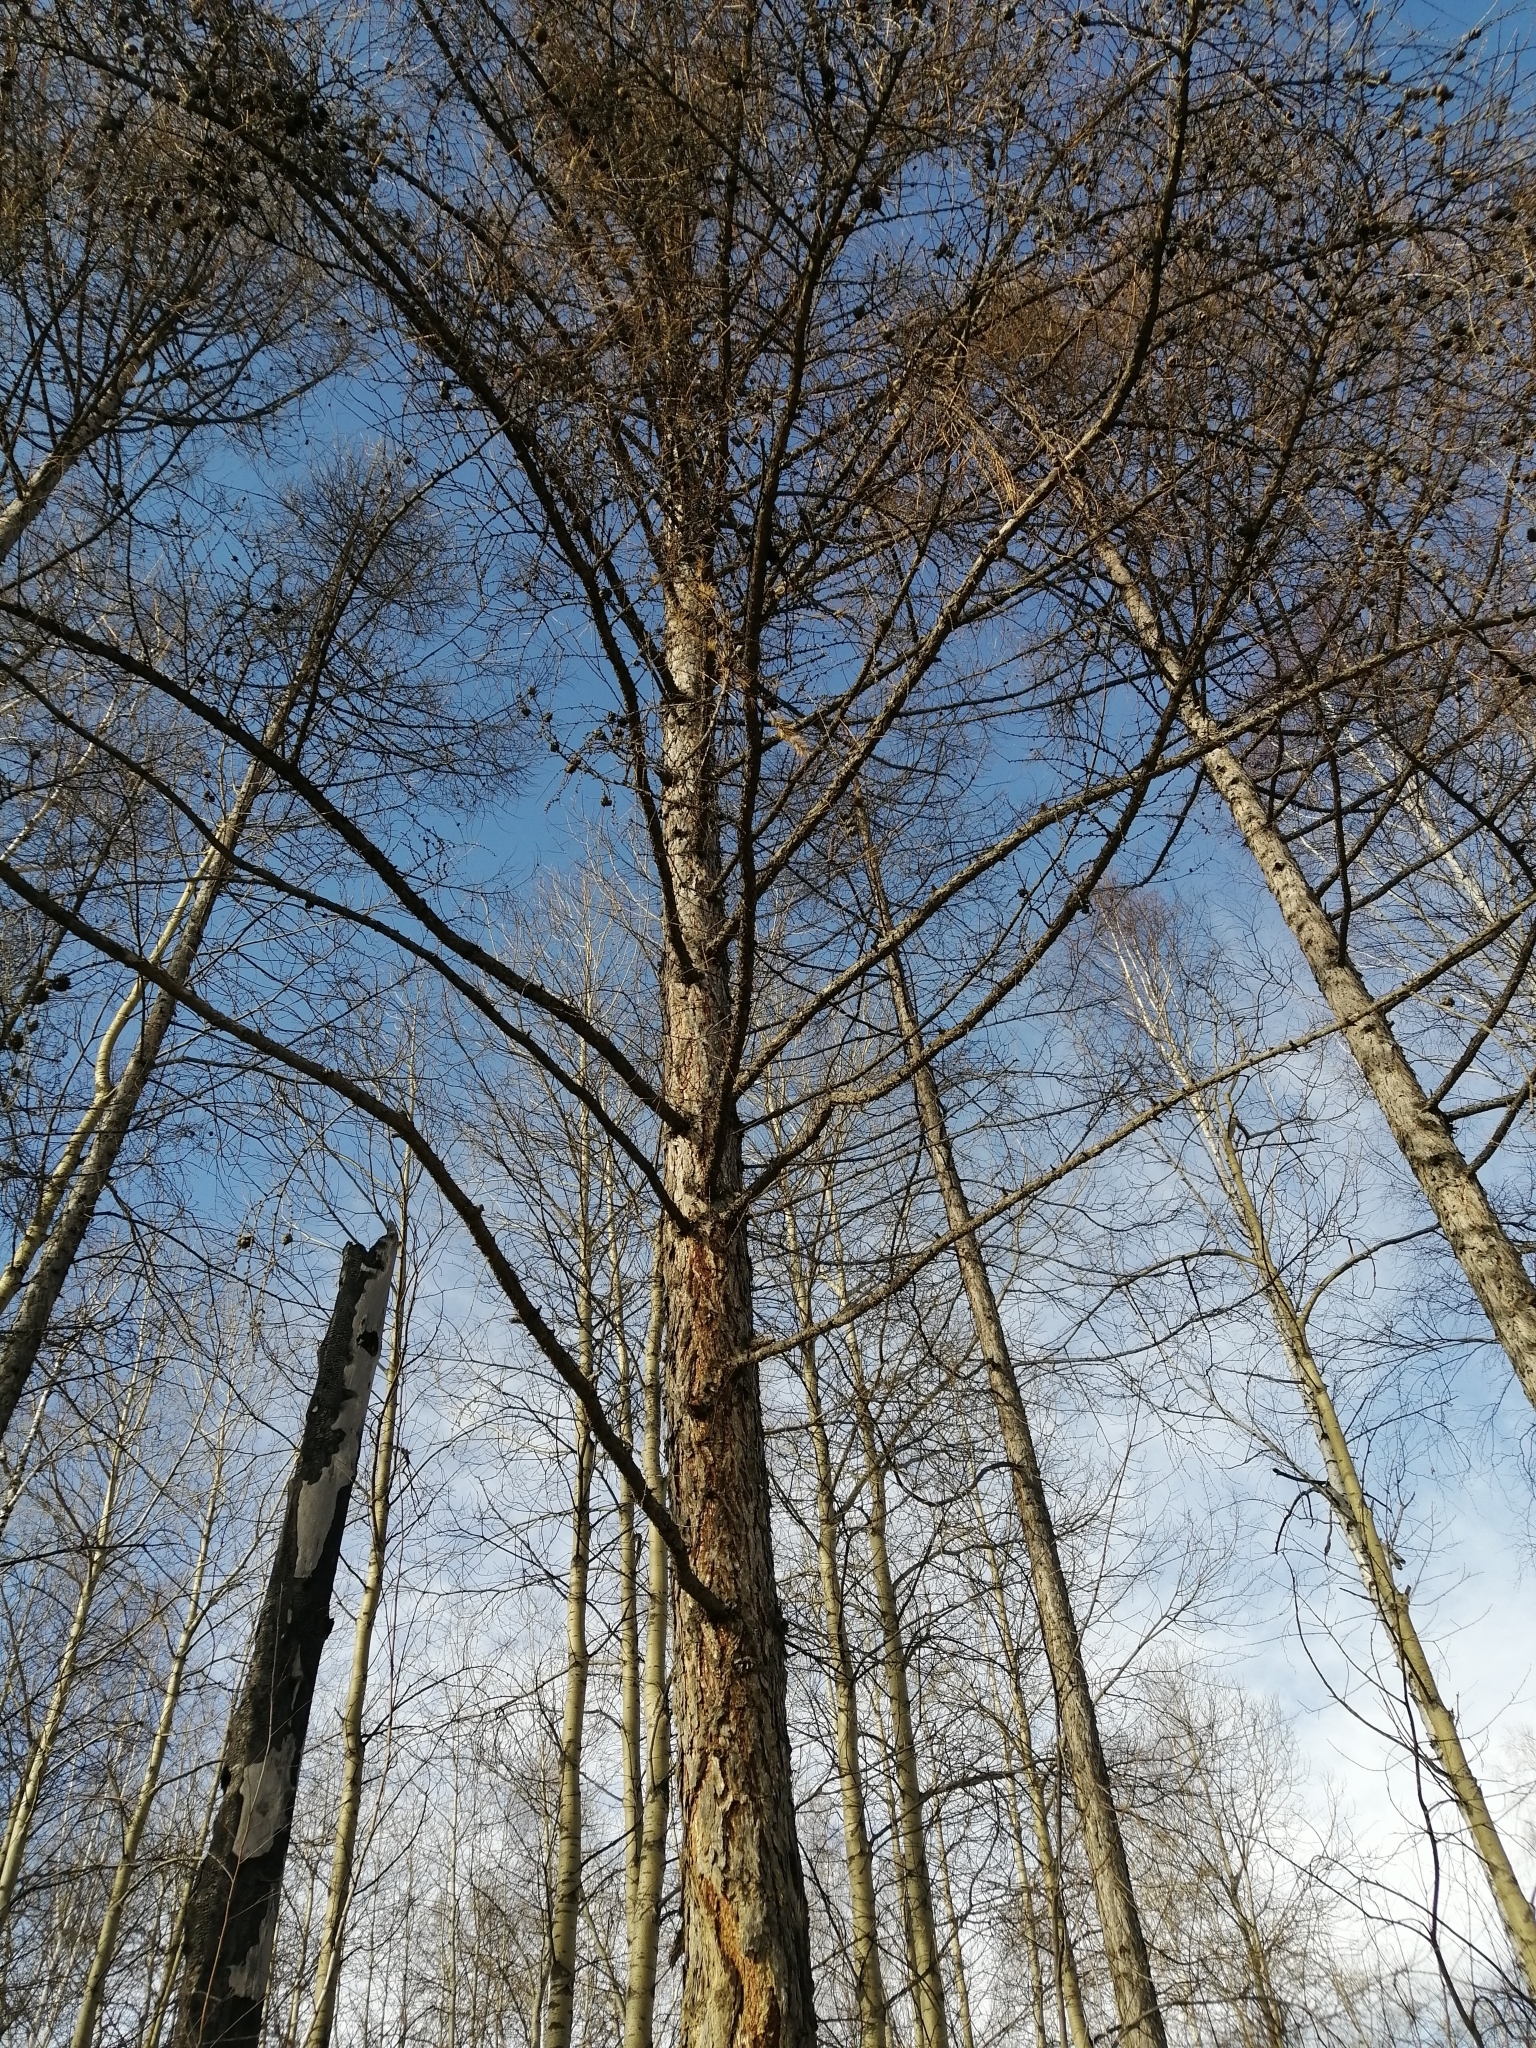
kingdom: Plantae
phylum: Tracheophyta
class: Pinopsida
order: Pinales
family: Pinaceae
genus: Larix
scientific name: Larix sibirica
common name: Siberian larch
